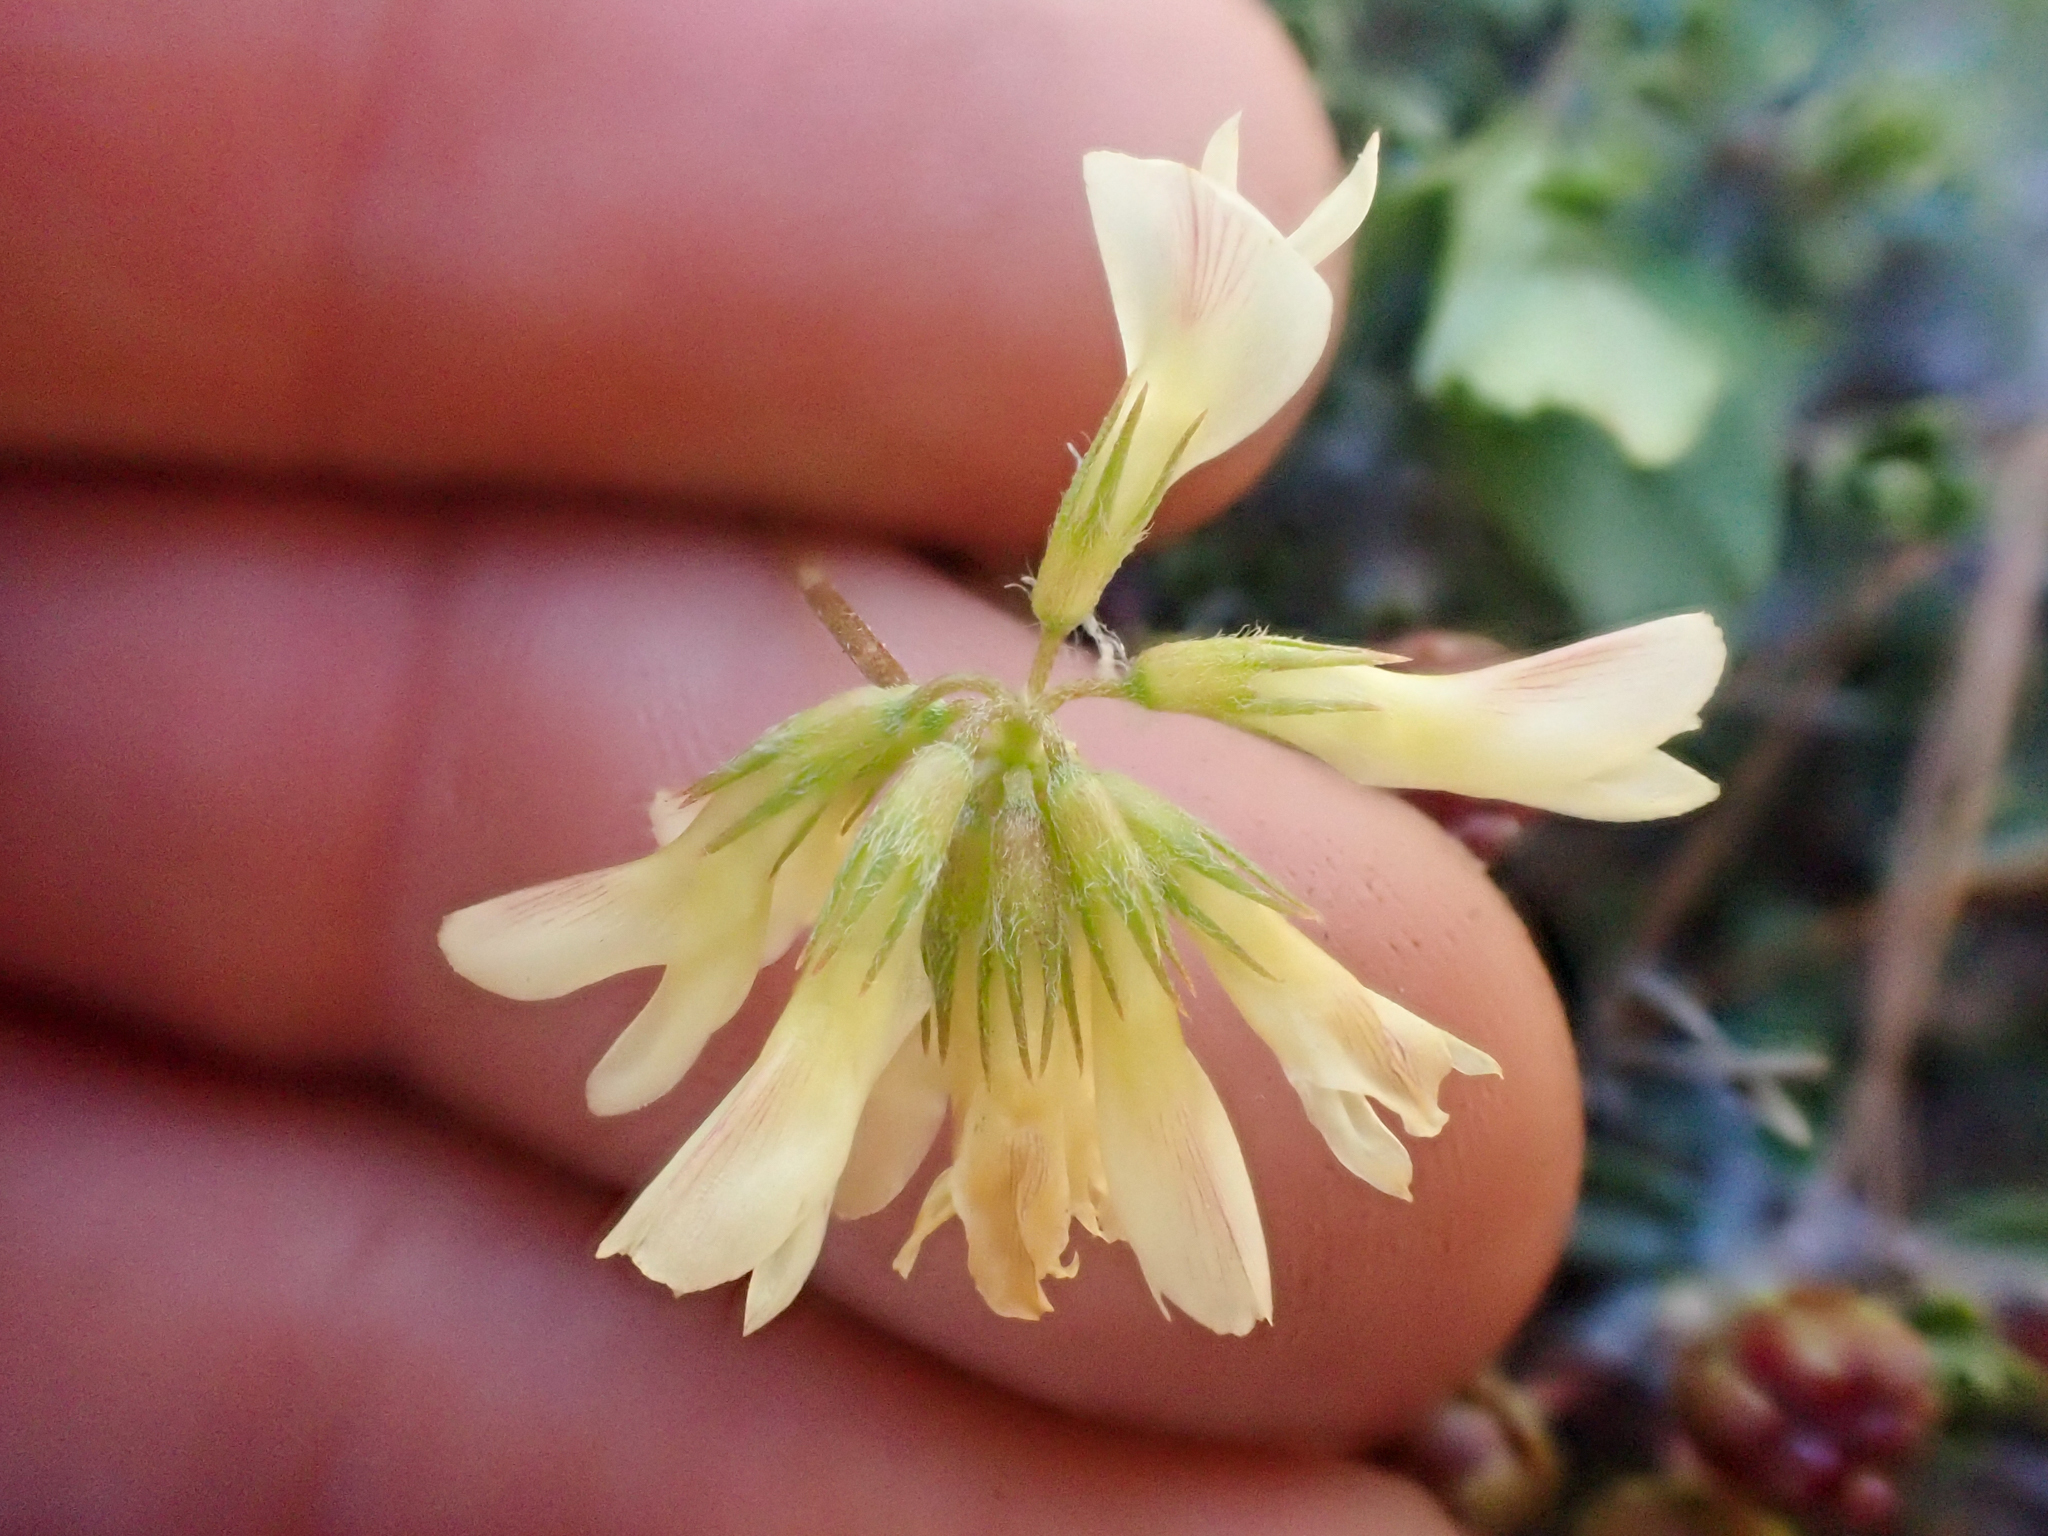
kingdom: Plantae
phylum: Tracheophyta
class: Magnoliopsida
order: Fabales
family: Fabaceae
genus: Trifolium
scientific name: Trifolium breweri
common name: Forest clover
